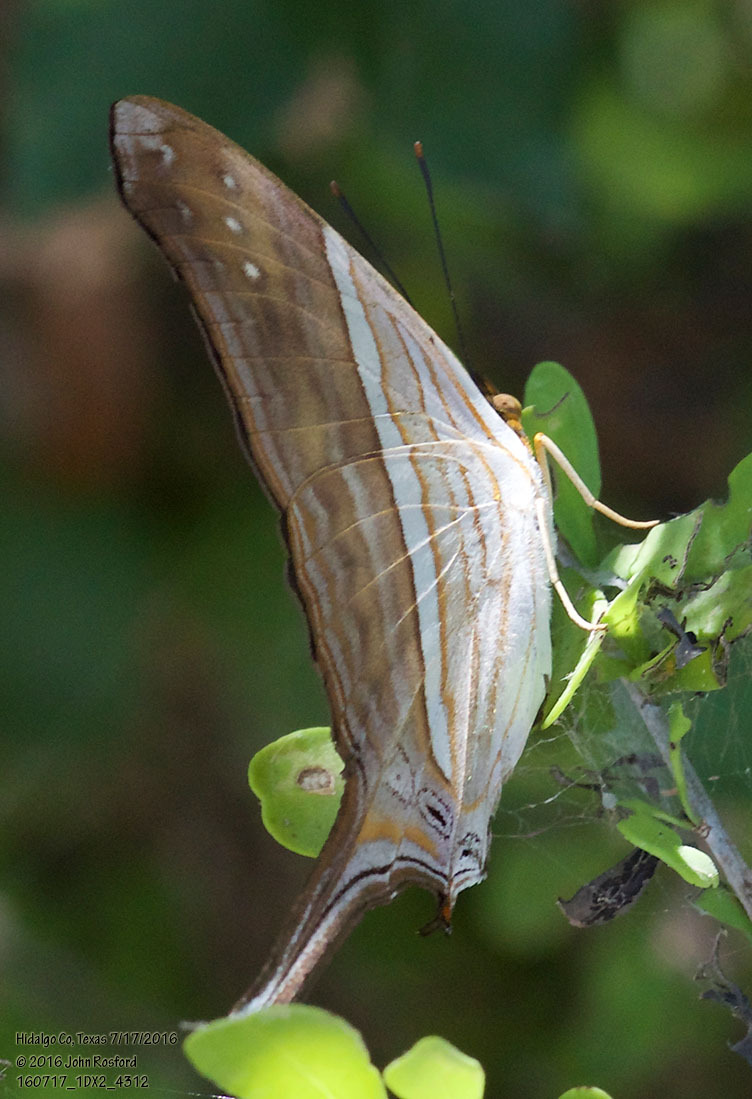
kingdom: Animalia
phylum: Arthropoda
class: Insecta
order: Lepidoptera
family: Nymphalidae
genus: Marpesia
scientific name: Marpesia chiron
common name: Many-banded daggerwing
